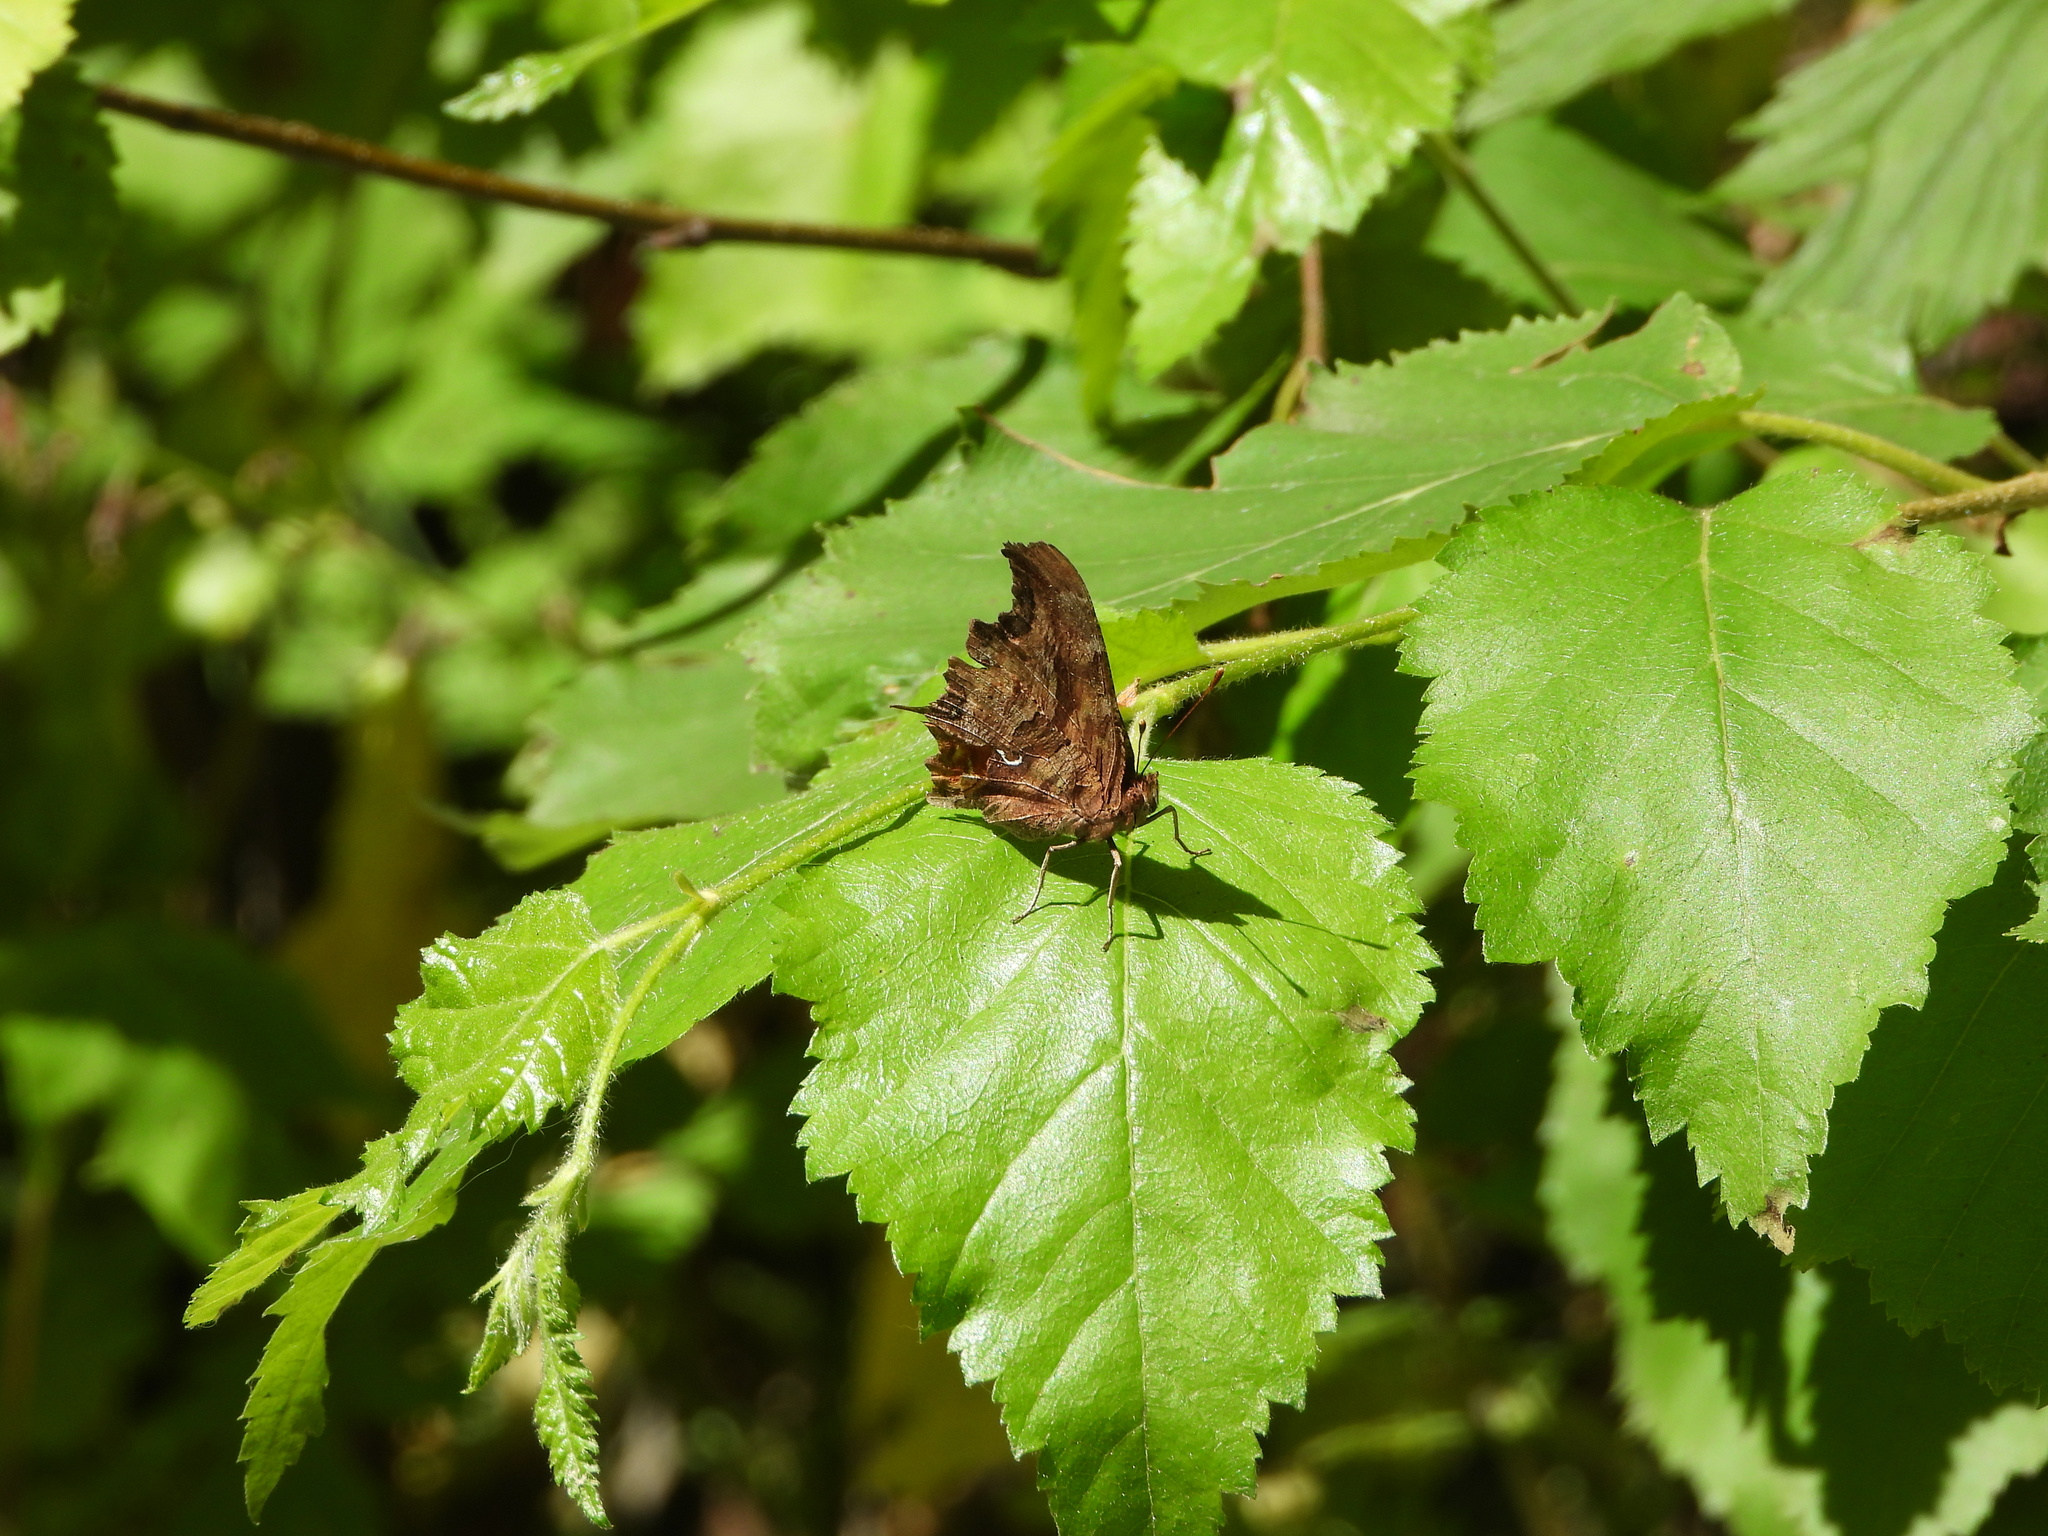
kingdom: Animalia
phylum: Arthropoda
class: Insecta
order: Lepidoptera
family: Nymphalidae
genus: Polygonia
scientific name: Polygonia satyrus
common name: Satyr angle wing
